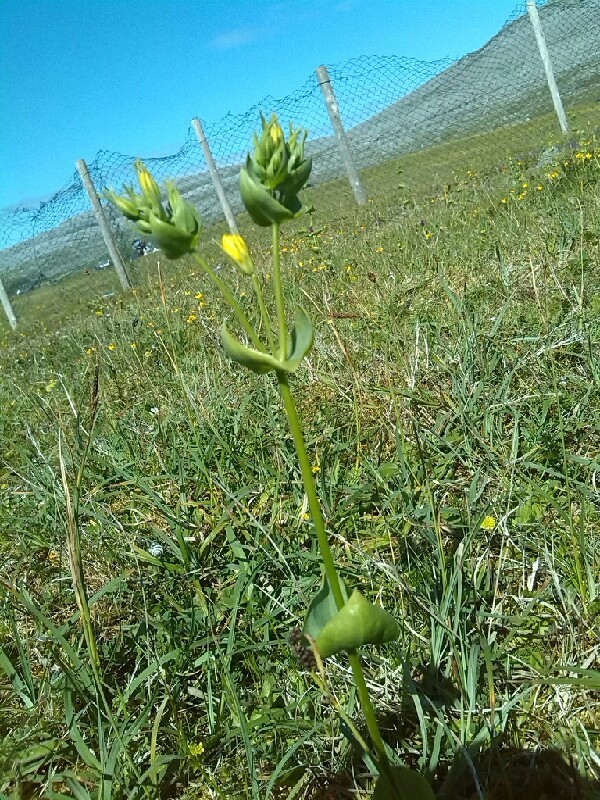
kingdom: Plantae
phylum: Tracheophyta
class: Magnoliopsida
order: Gentianales
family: Gentianaceae
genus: Blackstonia
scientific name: Blackstonia perfoliata
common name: Yellow-wort
